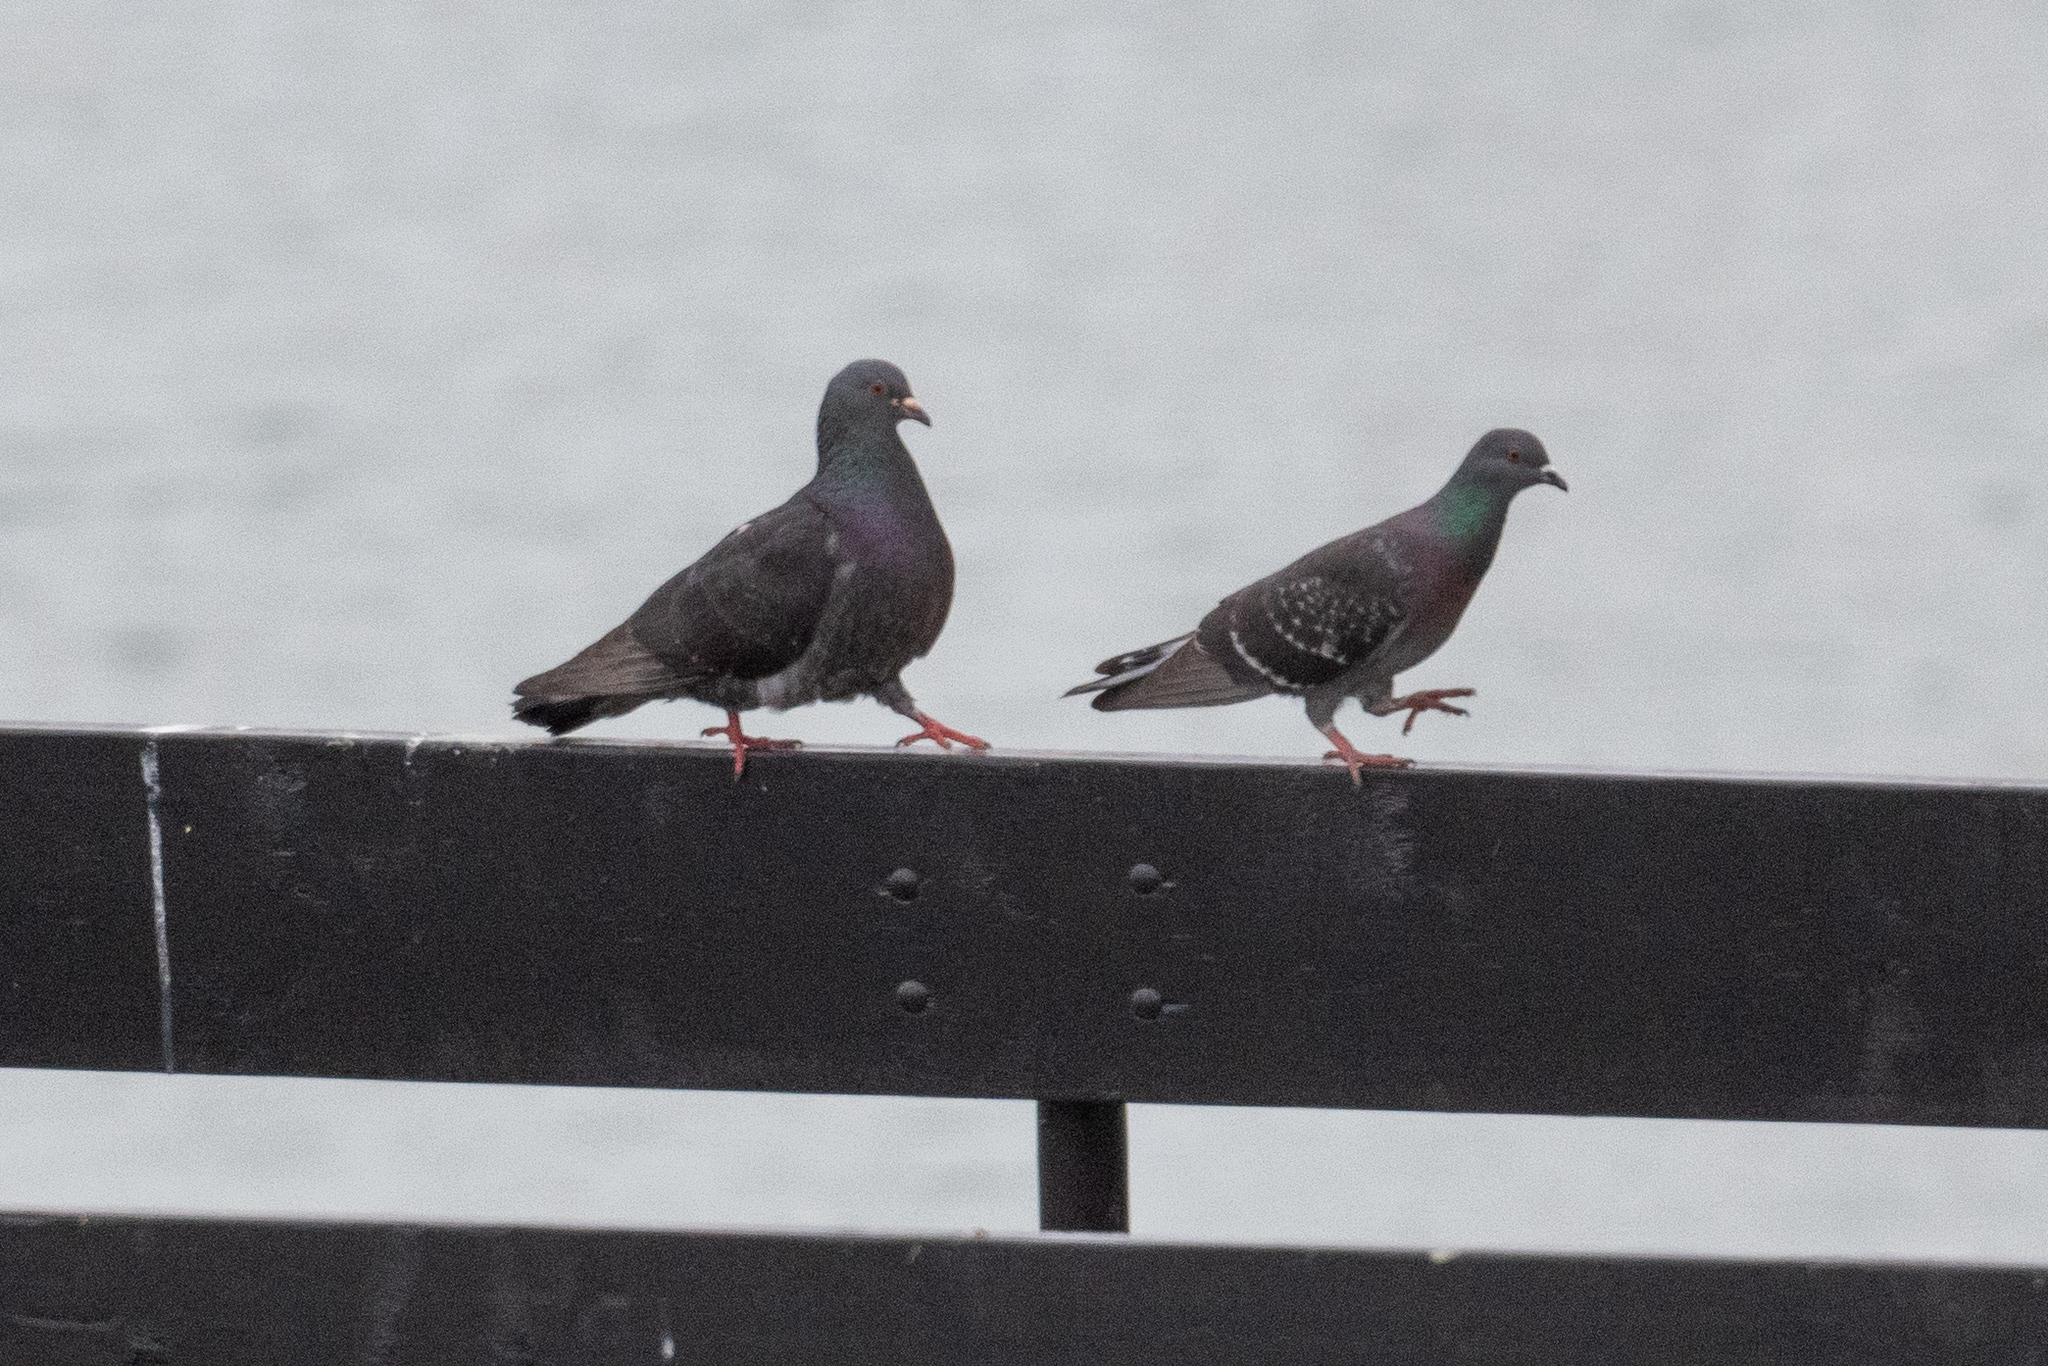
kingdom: Animalia
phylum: Chordata
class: Aves
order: Columbiformes
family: Columbidae
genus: Columba
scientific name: Columba livia
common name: Rock pigeon
